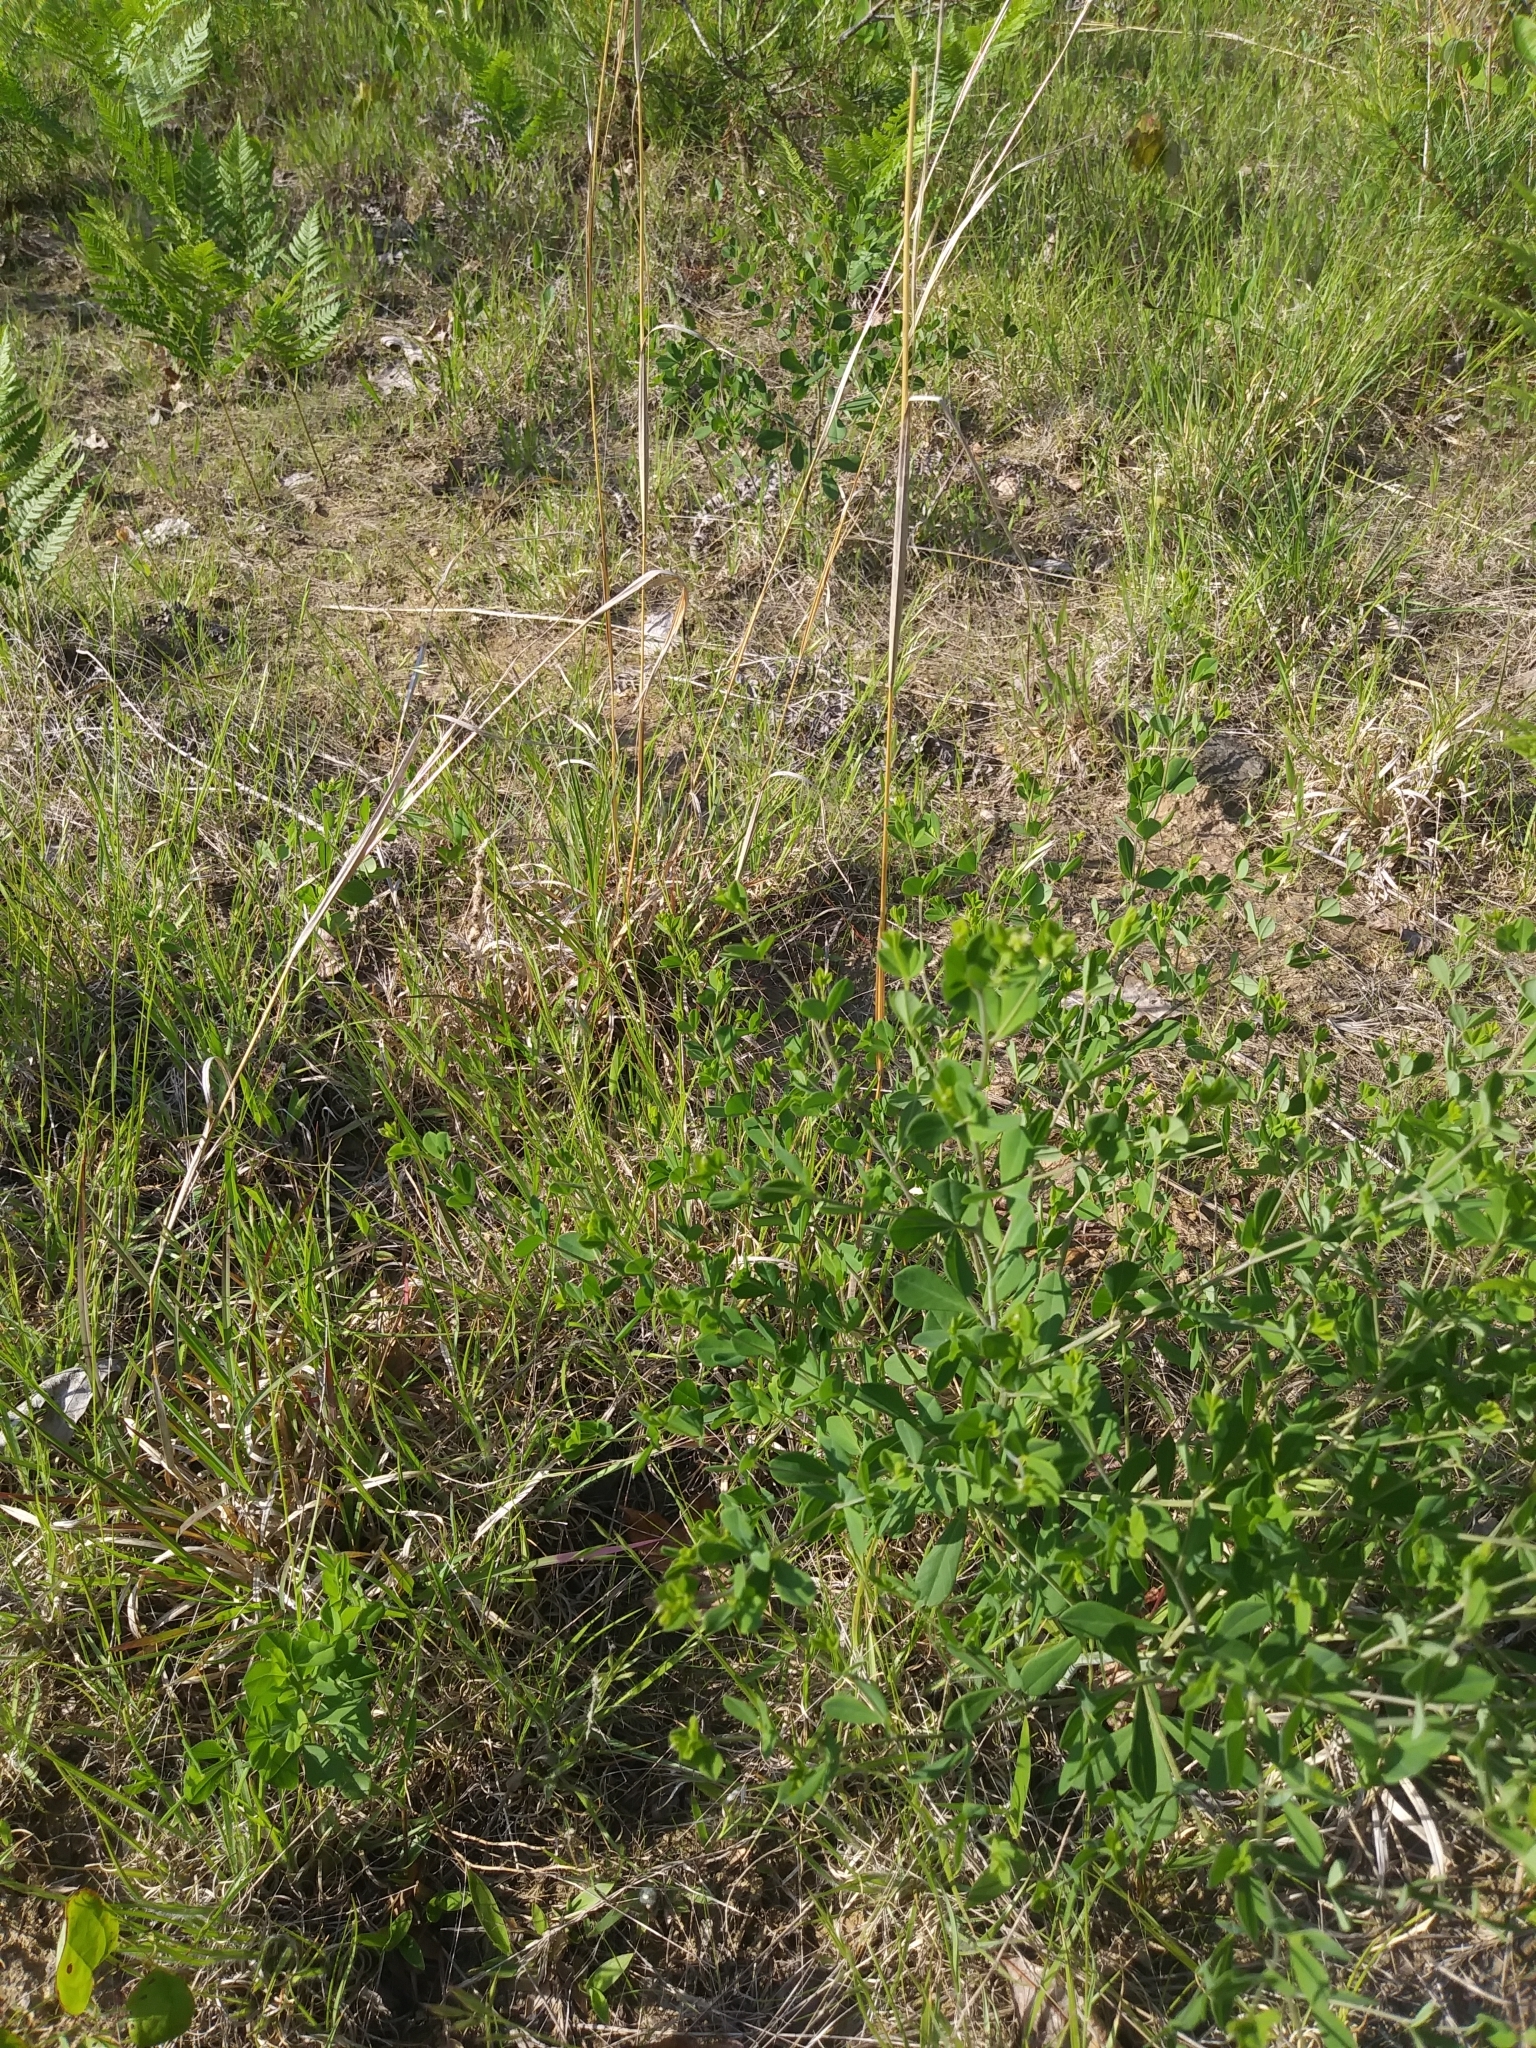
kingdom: Plantae
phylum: Tracheophyta
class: Magnoliopsida
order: Fabales
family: Fabaceae
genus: Baptisia
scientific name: Baptisia tinctoria
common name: Wild indigo
